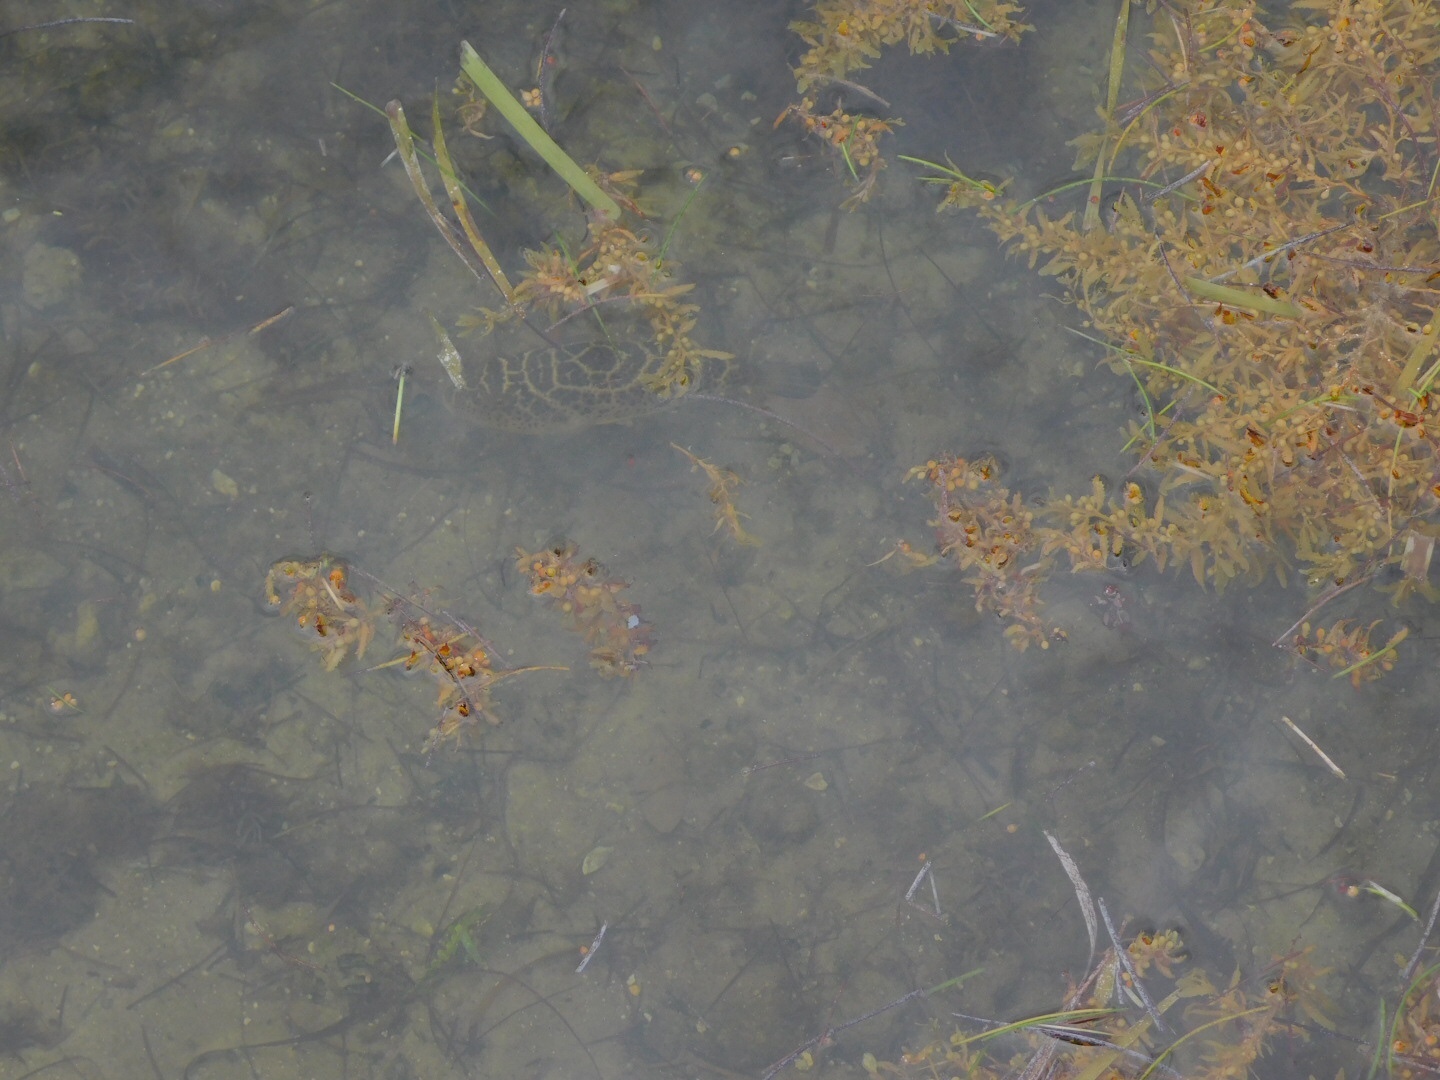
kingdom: Animalia
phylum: Chordata
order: Tetraodontiformes
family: Tetraodontidae
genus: Sphoeroides
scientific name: Sphoeroides testudineus
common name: Checkered puffer
